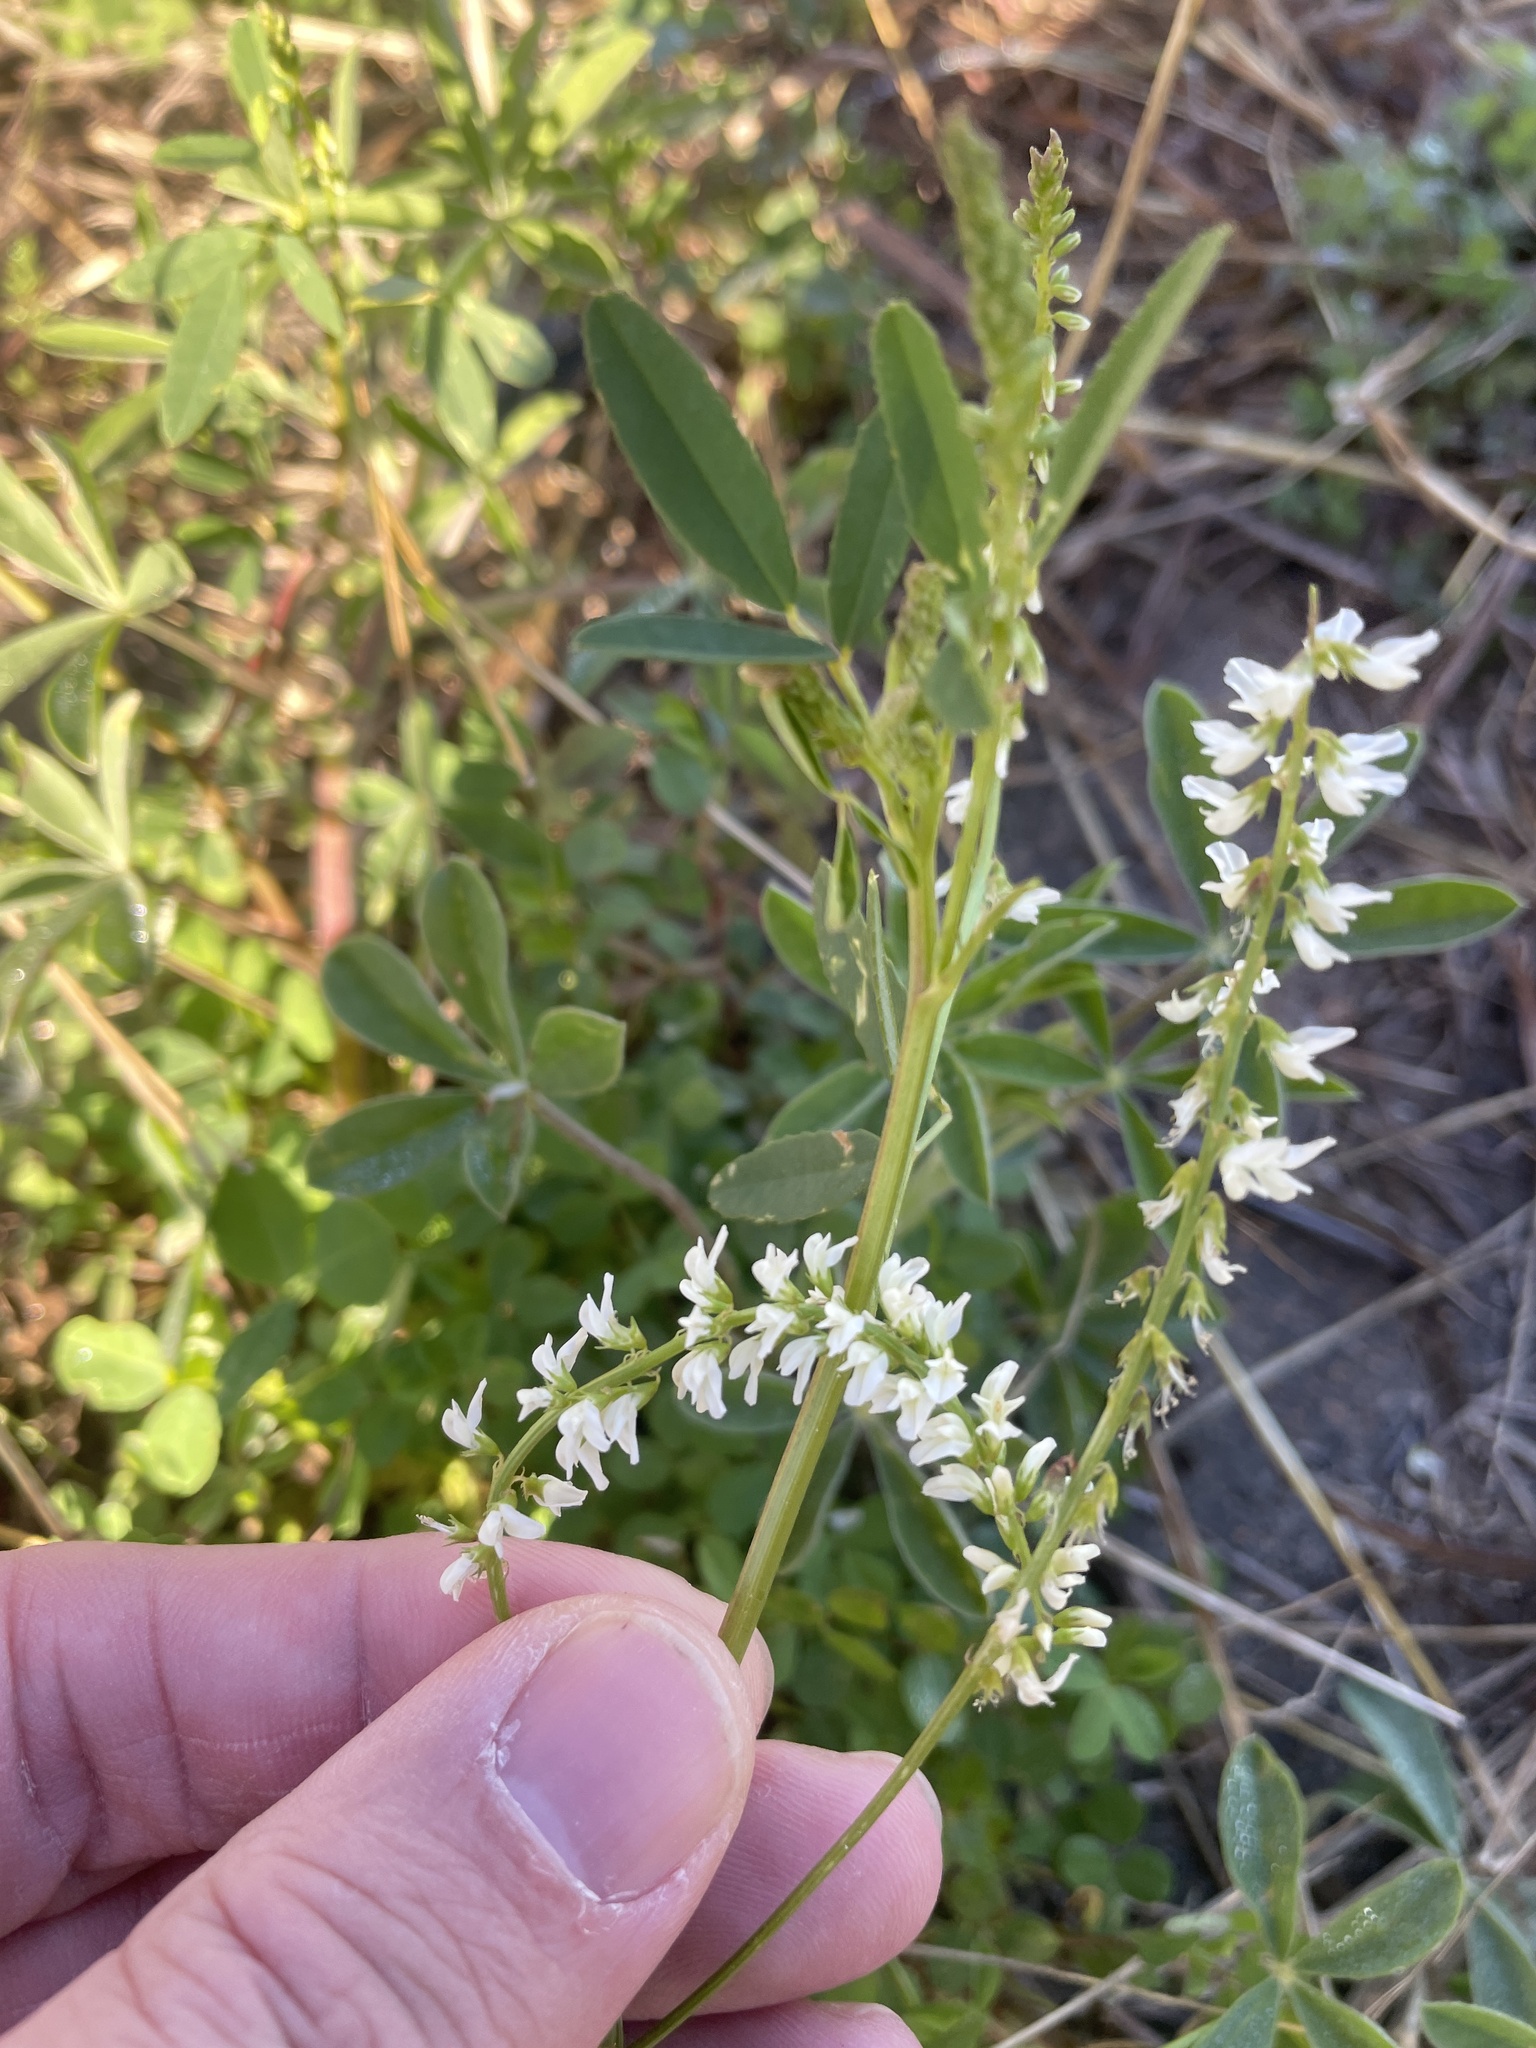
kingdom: Plantae
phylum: Tracheophyta
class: Magnoliopsida
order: Fabales
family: Fabaceae
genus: Melilotus
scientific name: Melilotus albus
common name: White melilot
